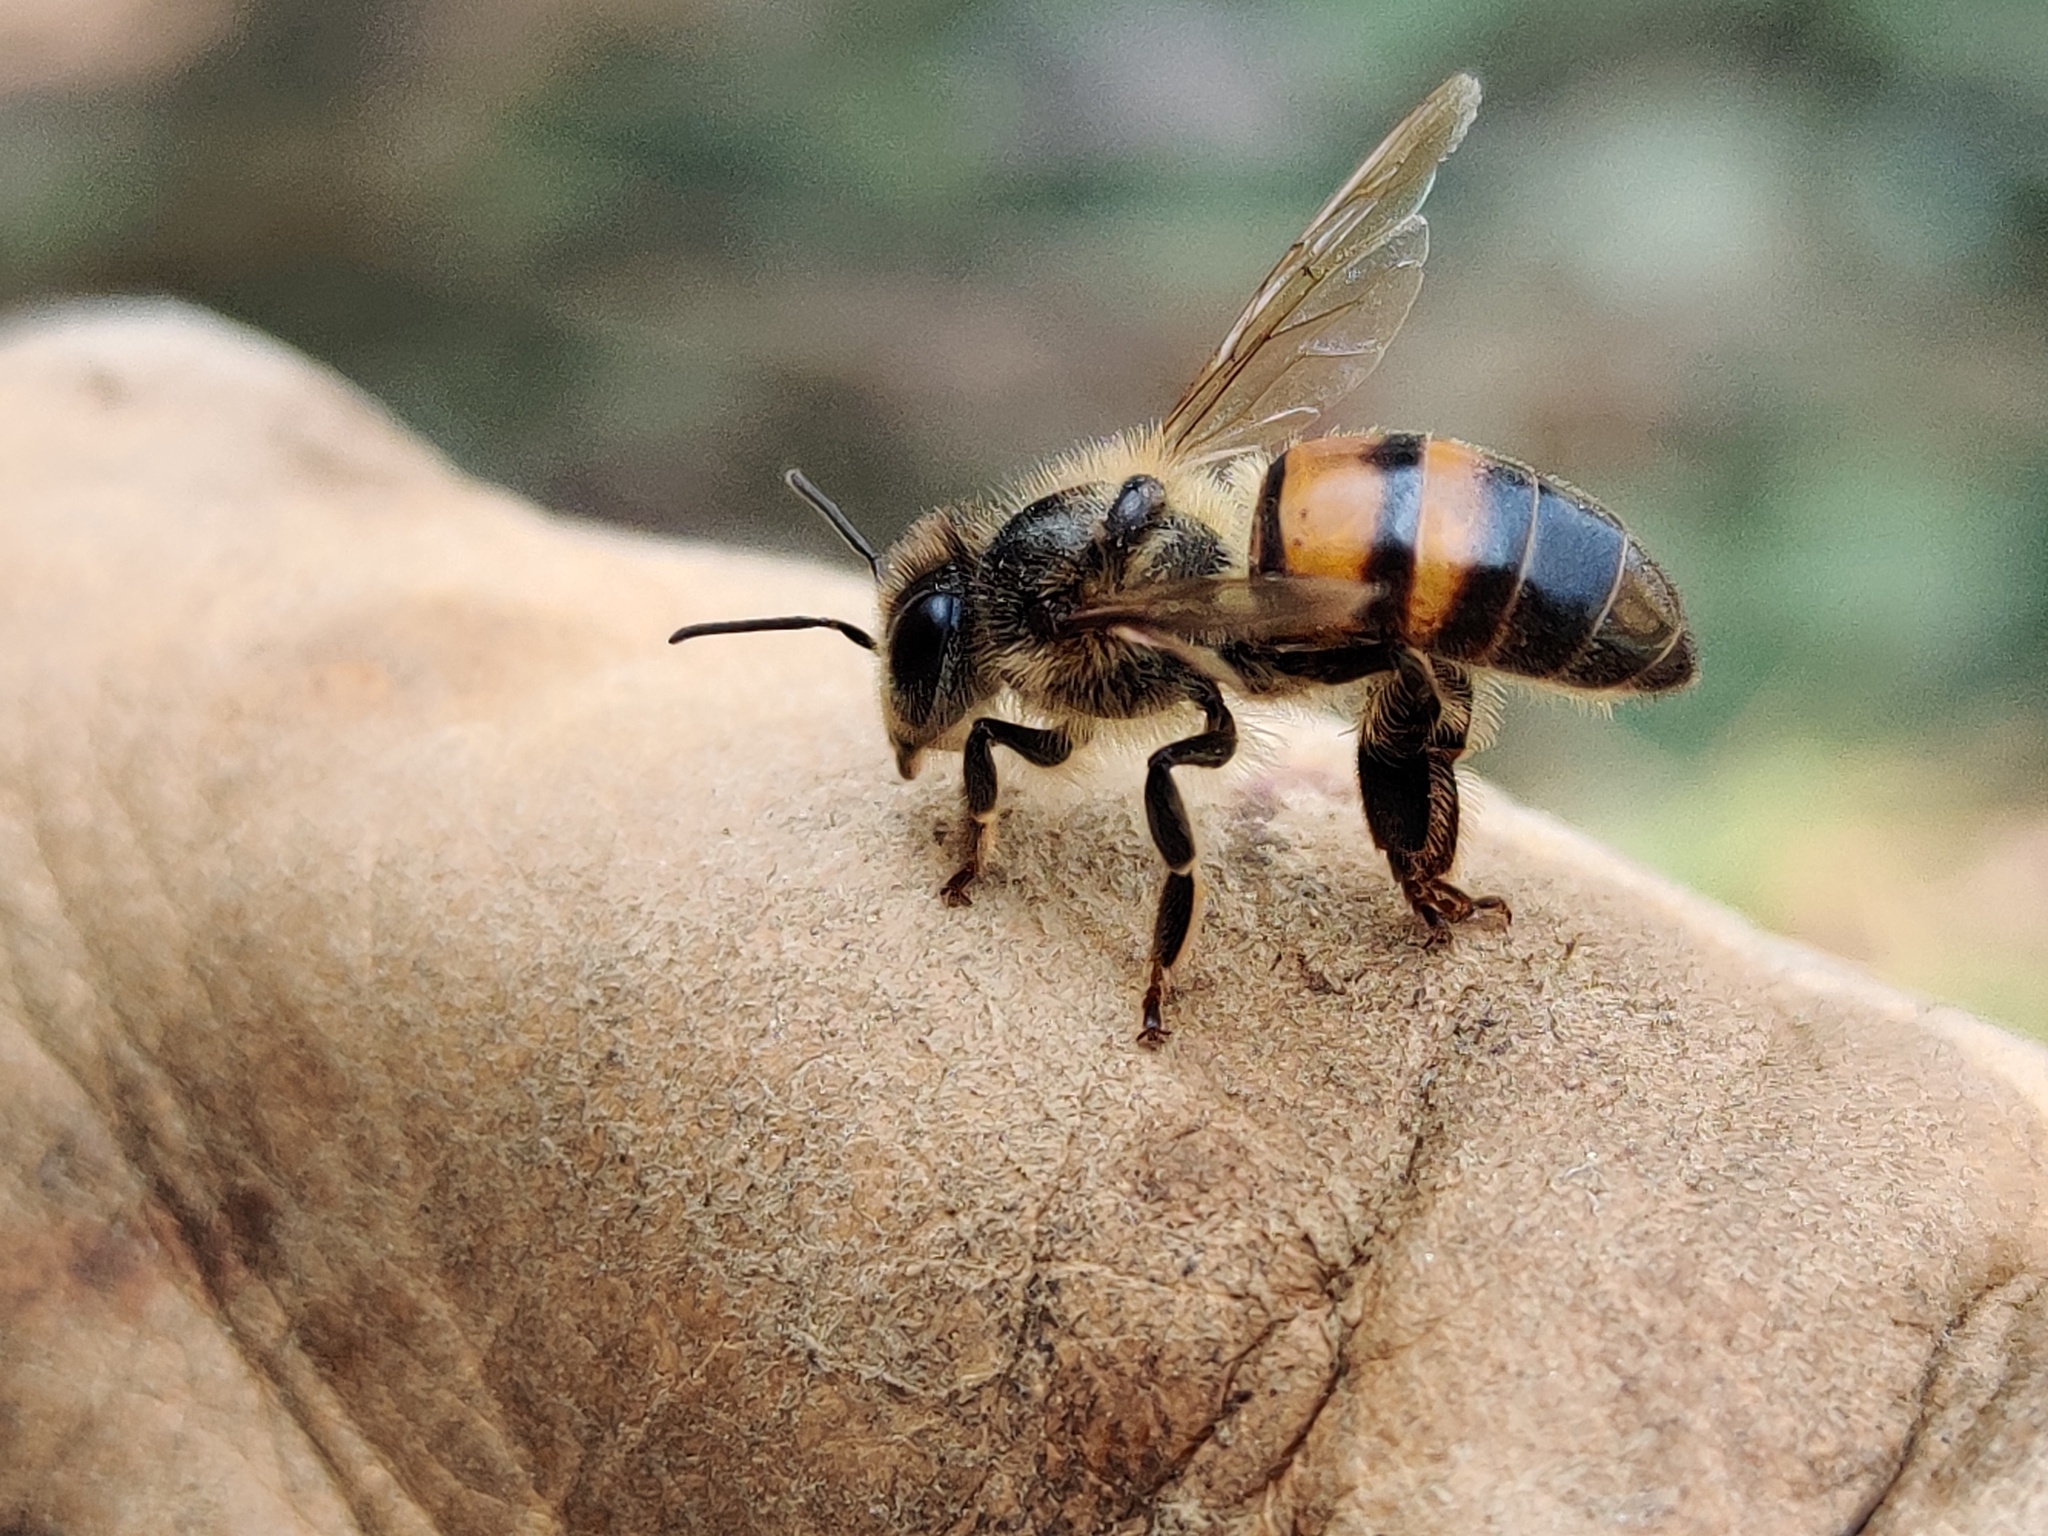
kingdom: Animalia
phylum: Arthropoda
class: Insecta
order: Hymenoptera
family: Apidae
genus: Apis
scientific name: Apis mellifera
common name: Honey bee
